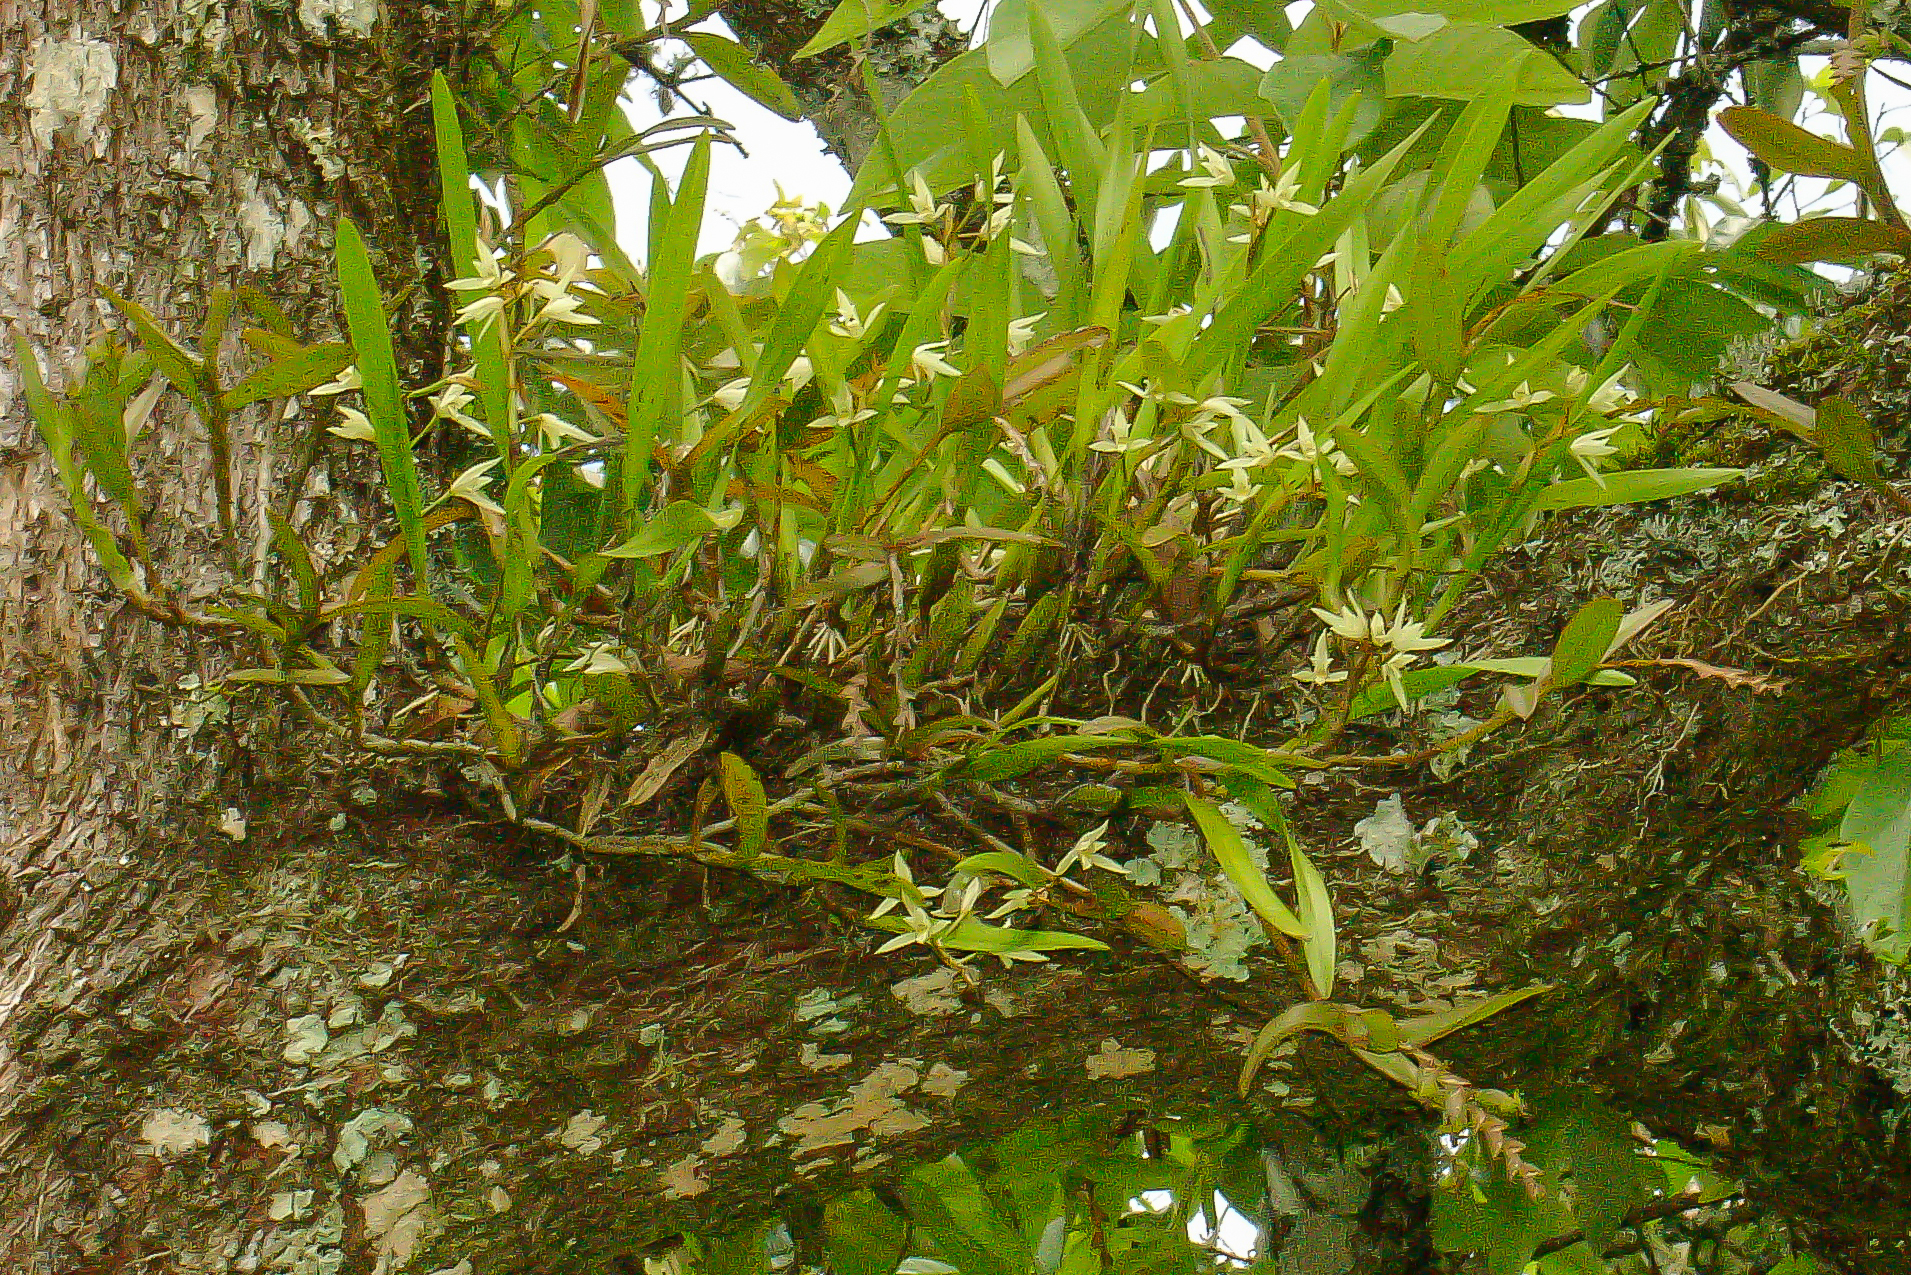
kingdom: Plantae
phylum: Tracheophyta
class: Liliopsida
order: Asparagales
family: Orchidaceae
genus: Nidema
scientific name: Nidema boothii
